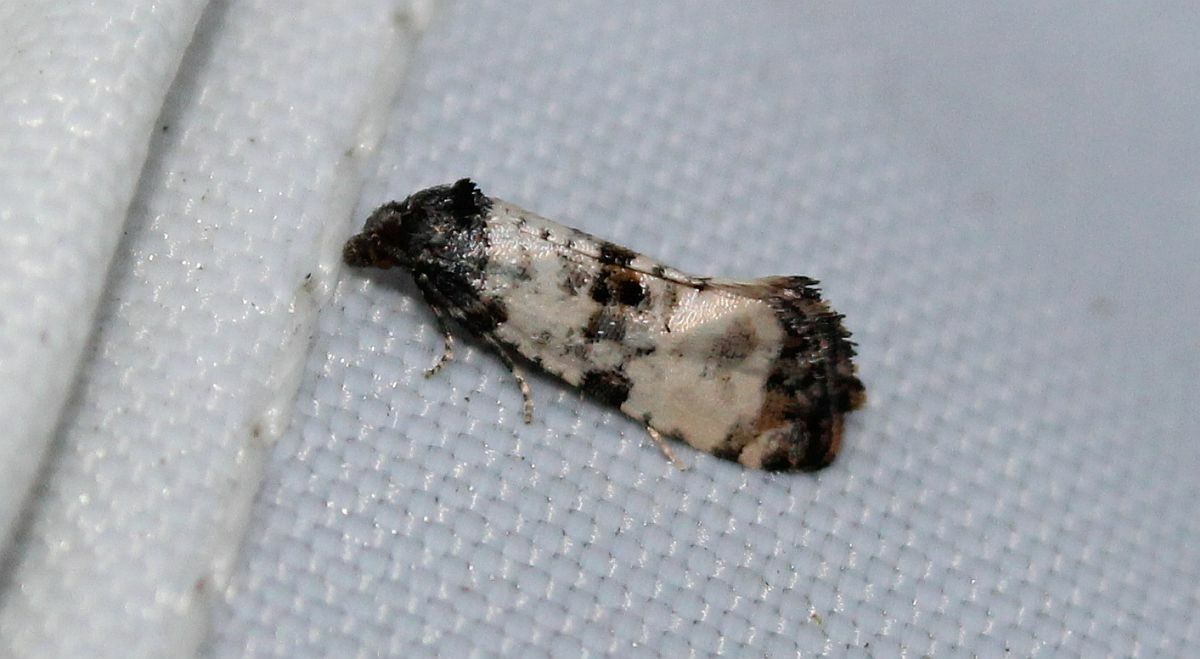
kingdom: Animalia
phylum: Arthropoda
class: Insecta
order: Lepidoptera
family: Tortricidae
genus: Cochylis
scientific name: Cochylis atricapitana
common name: Tortricid moth
